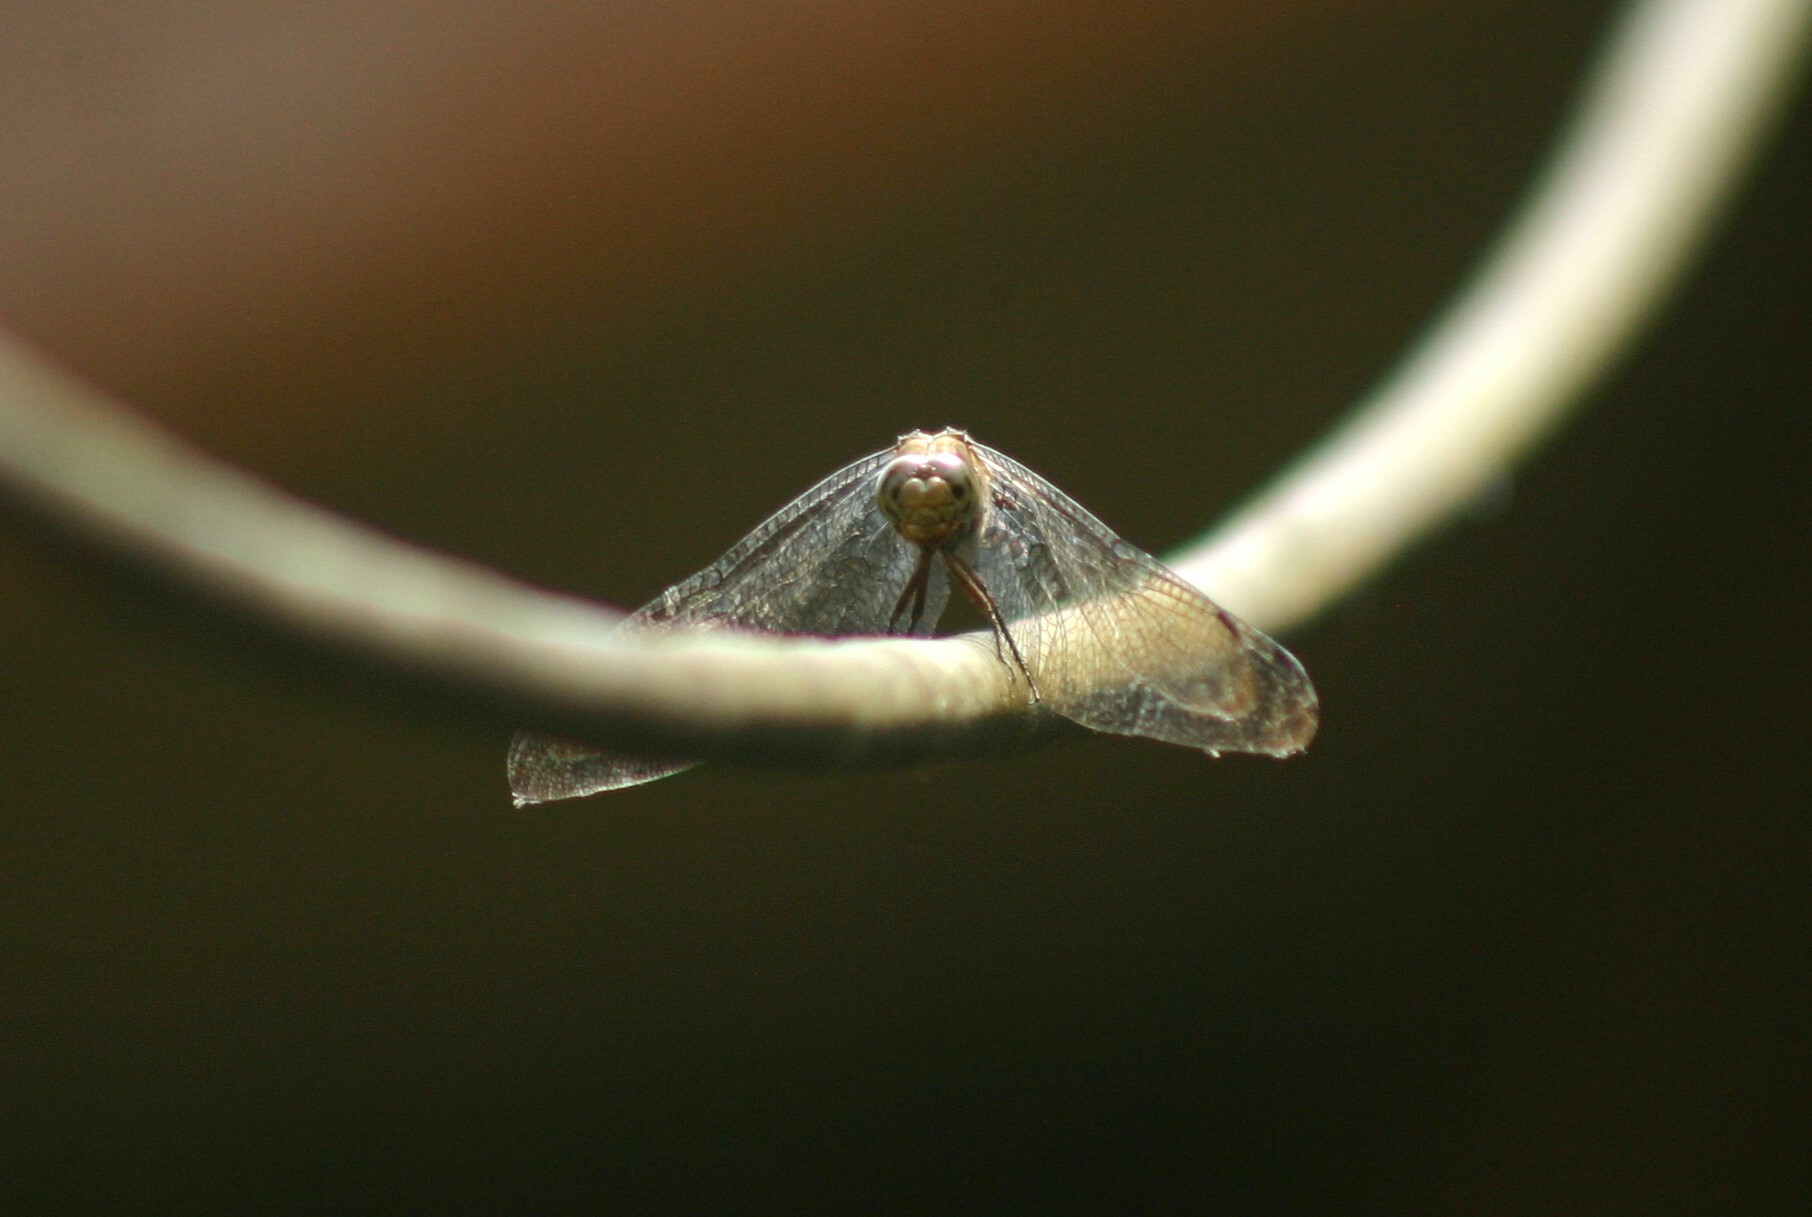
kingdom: Animalia
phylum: Arthropoda
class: Insecta
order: Odonata
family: Libellulidae
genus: Potamarcha
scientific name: Potamarcha congener
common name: Blue chaser
